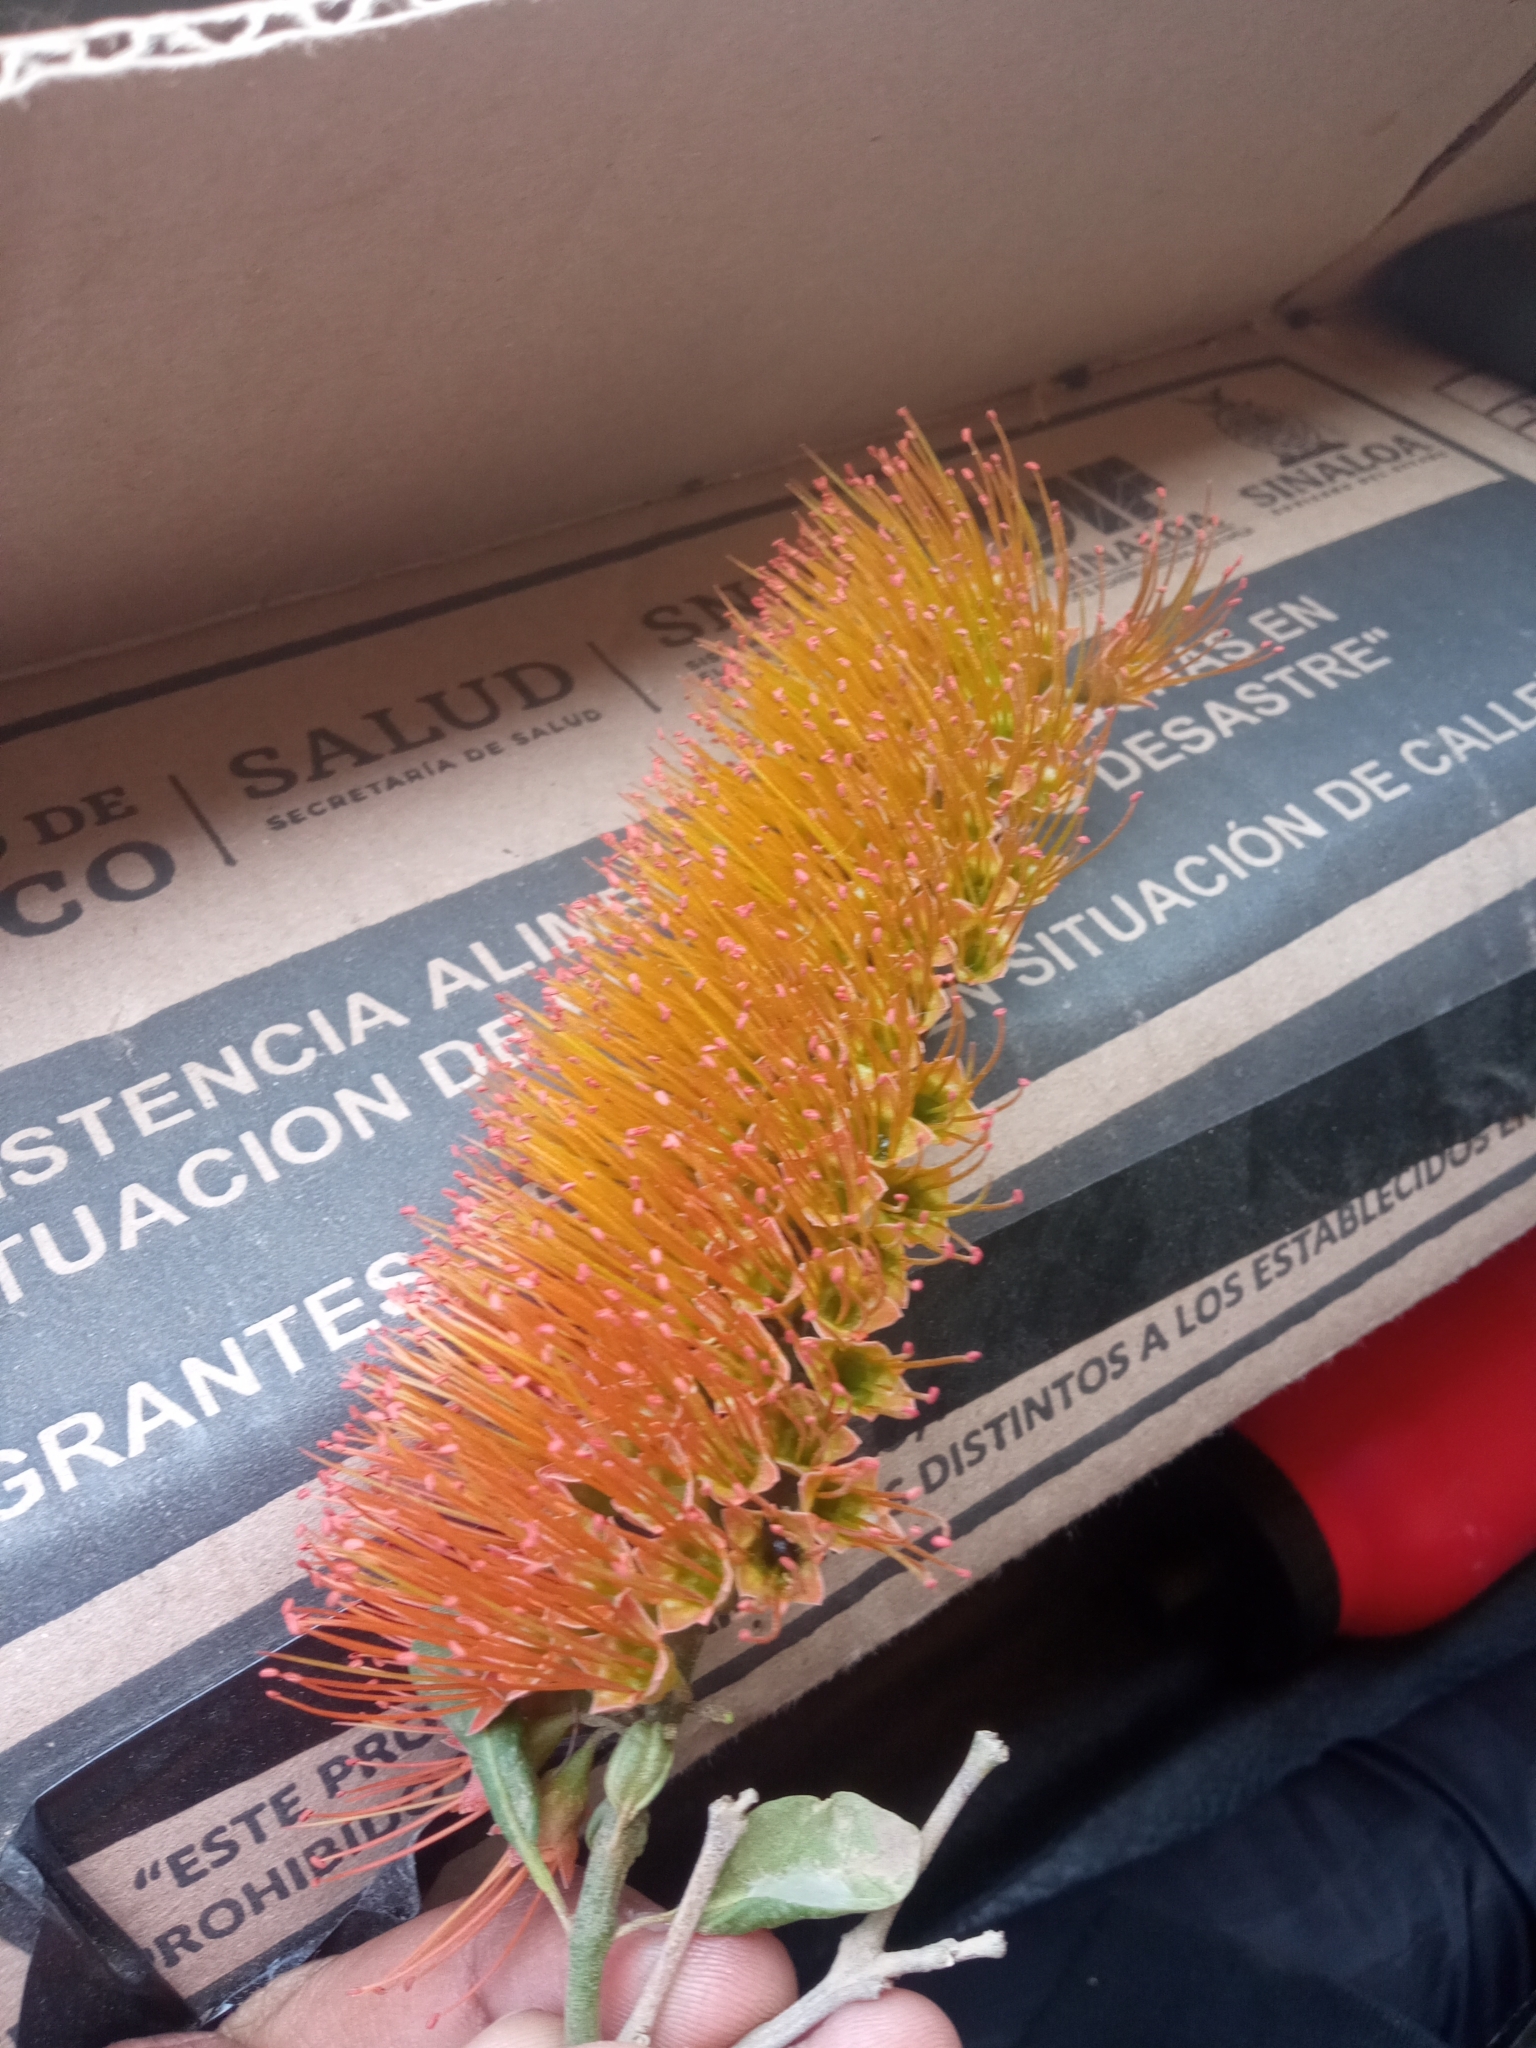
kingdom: Plantae
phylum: Tracheophyta
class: Magnoliopsida
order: Myrtales
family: Combretaceae
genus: Combretum
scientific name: Combretum farinosum
